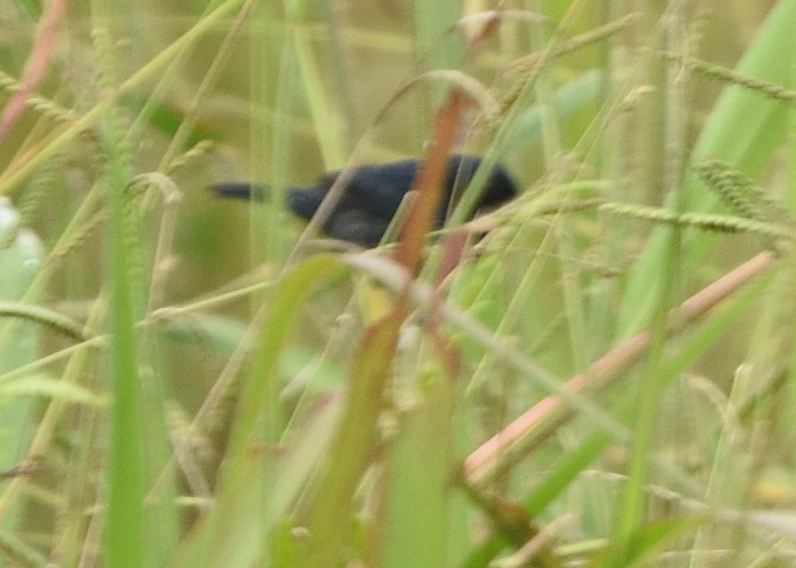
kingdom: Animalia
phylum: Chordata
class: Aves
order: Passeriformes
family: Thraupidae
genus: Volatinia
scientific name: Volatinia jacarina
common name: Blue-black grassquit
